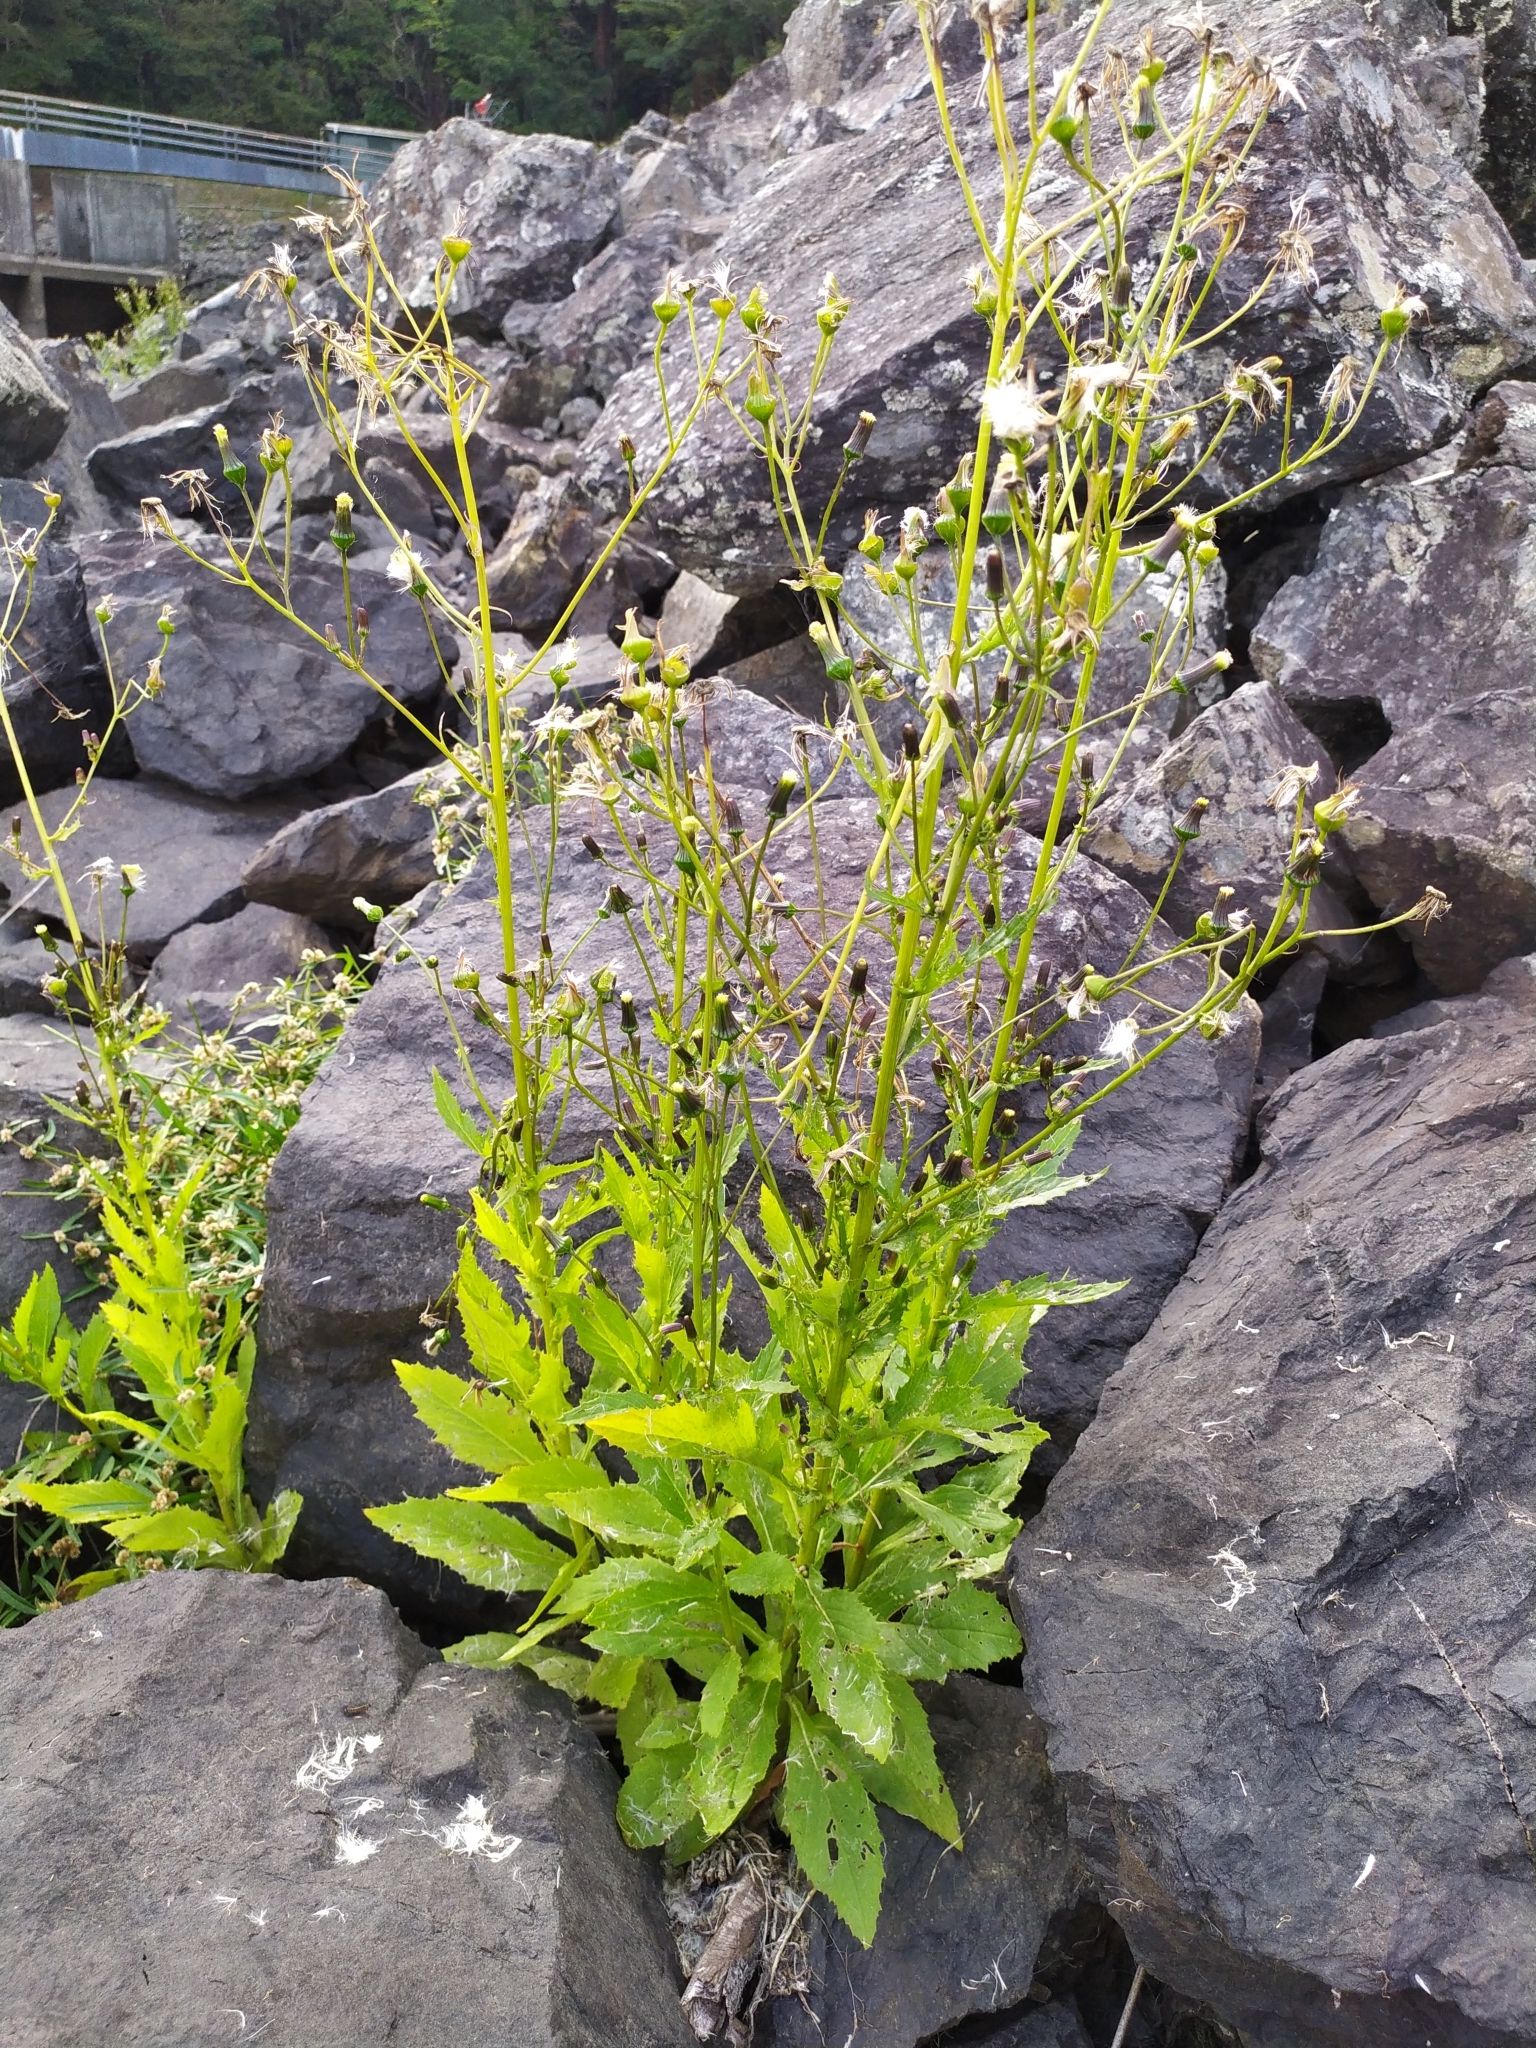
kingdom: Plantae
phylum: Tracheophyta
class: Magnoliopsida
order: Asterales
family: Asteraceae
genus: Erechtites
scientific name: Erechtites hieraciifolius
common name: American burnweed
